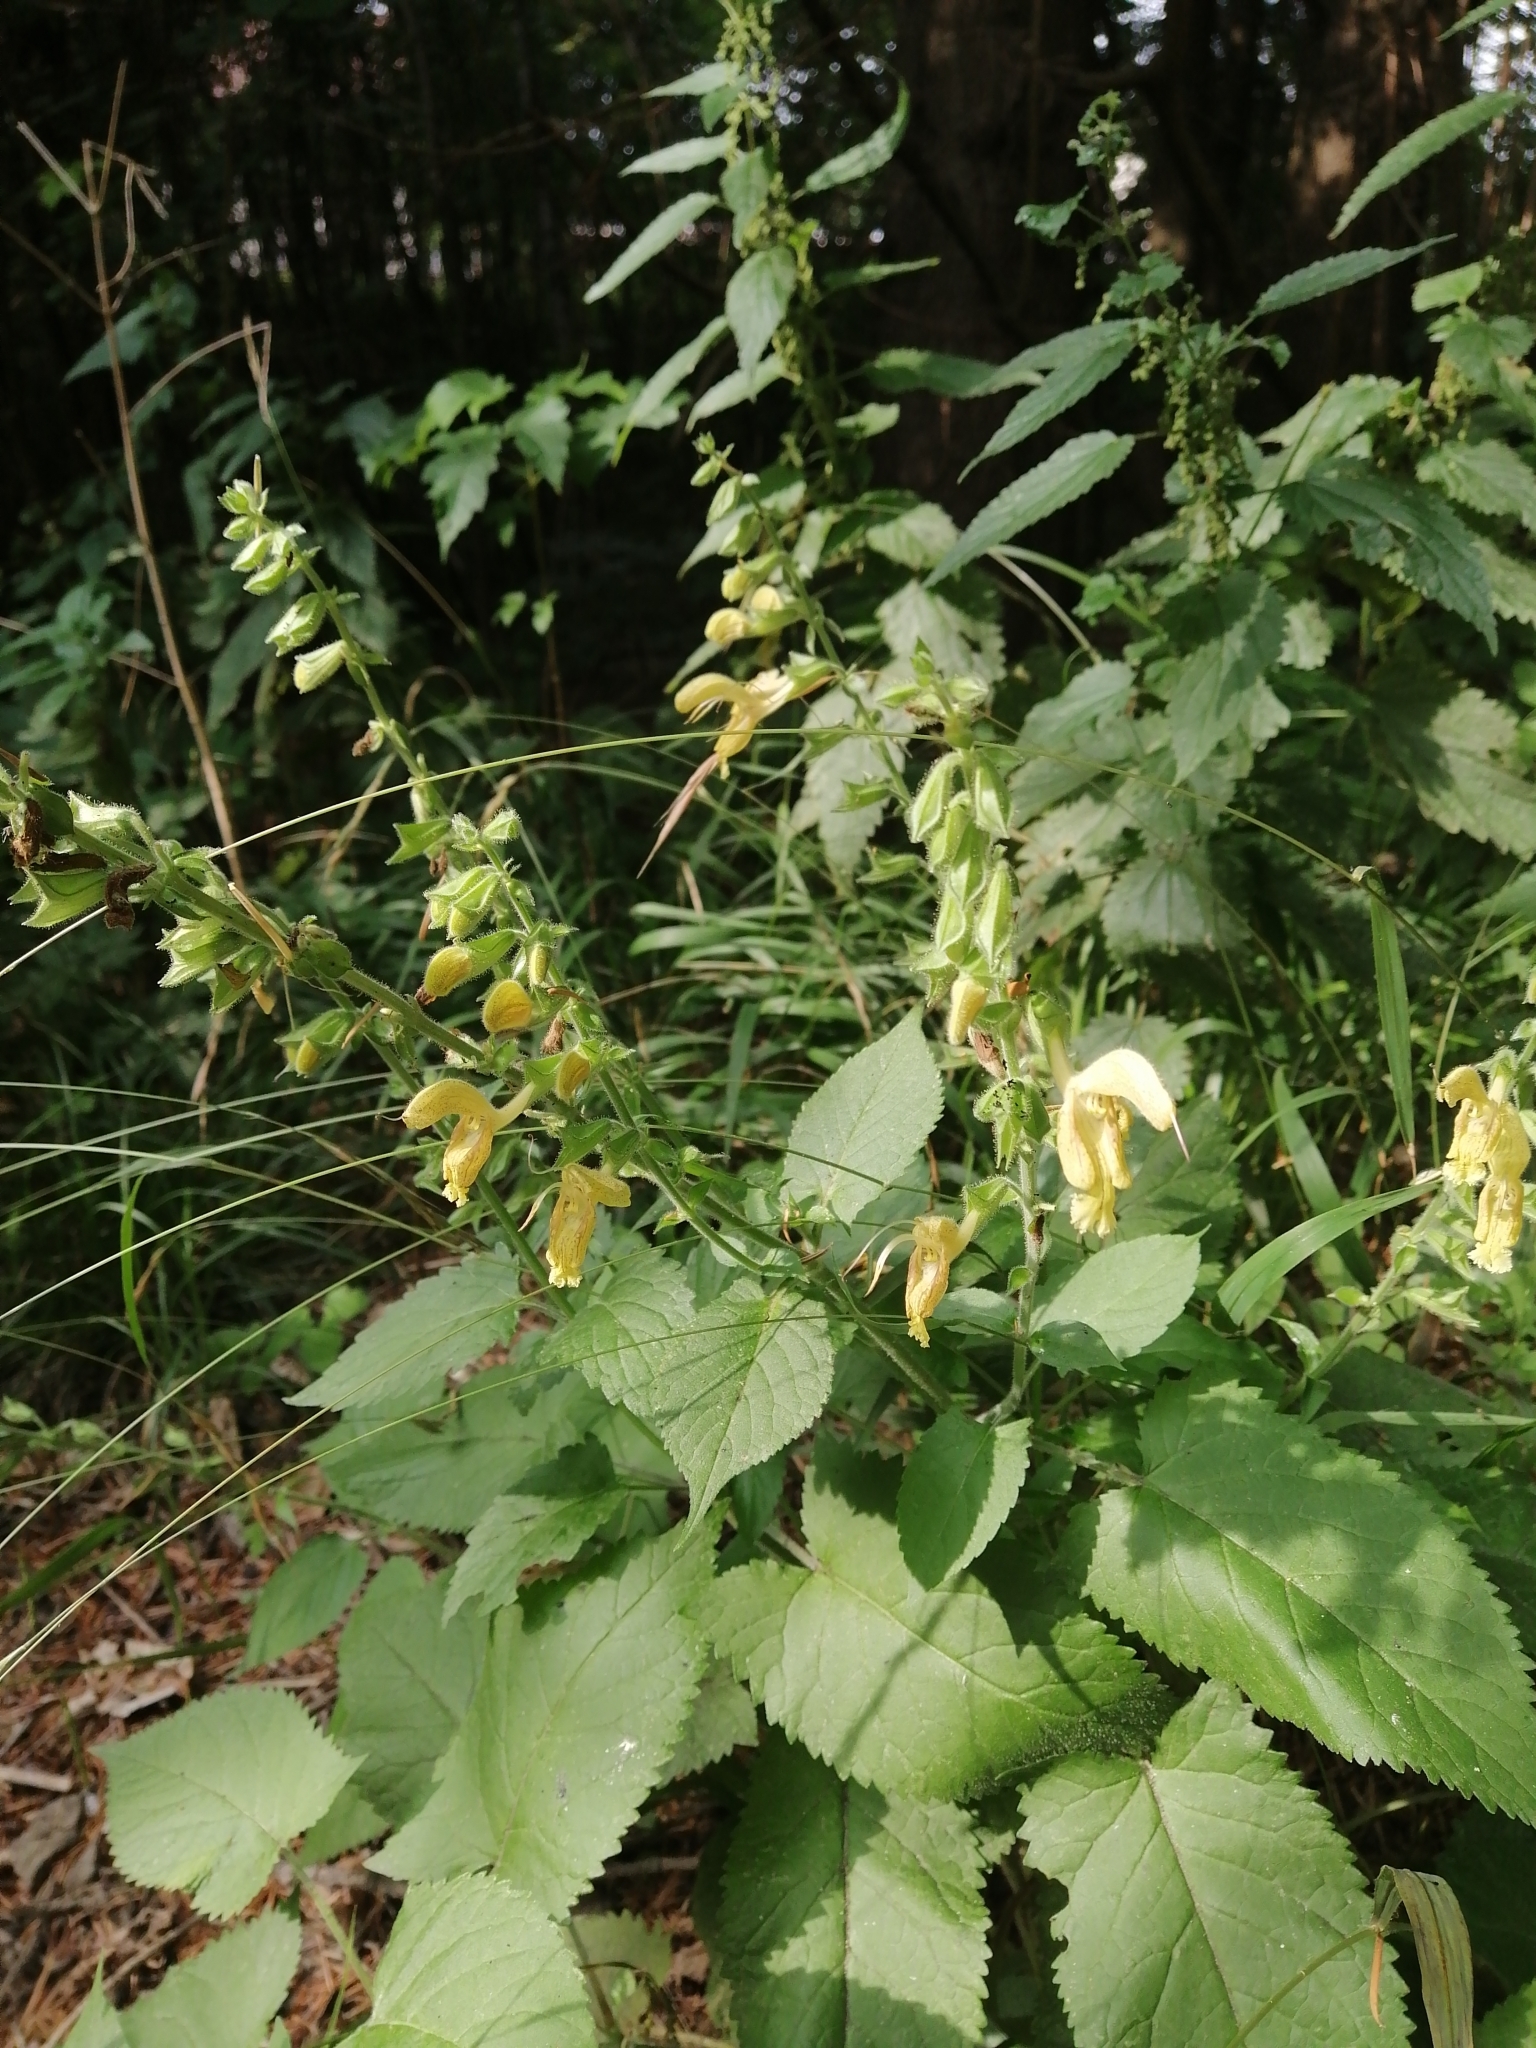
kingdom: Plantae
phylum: Tracheophyta
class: Magnoliopsida
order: Lamiales
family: Lamiaceae
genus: Salvia
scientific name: Salvia glutinosa
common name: Sticky clary
